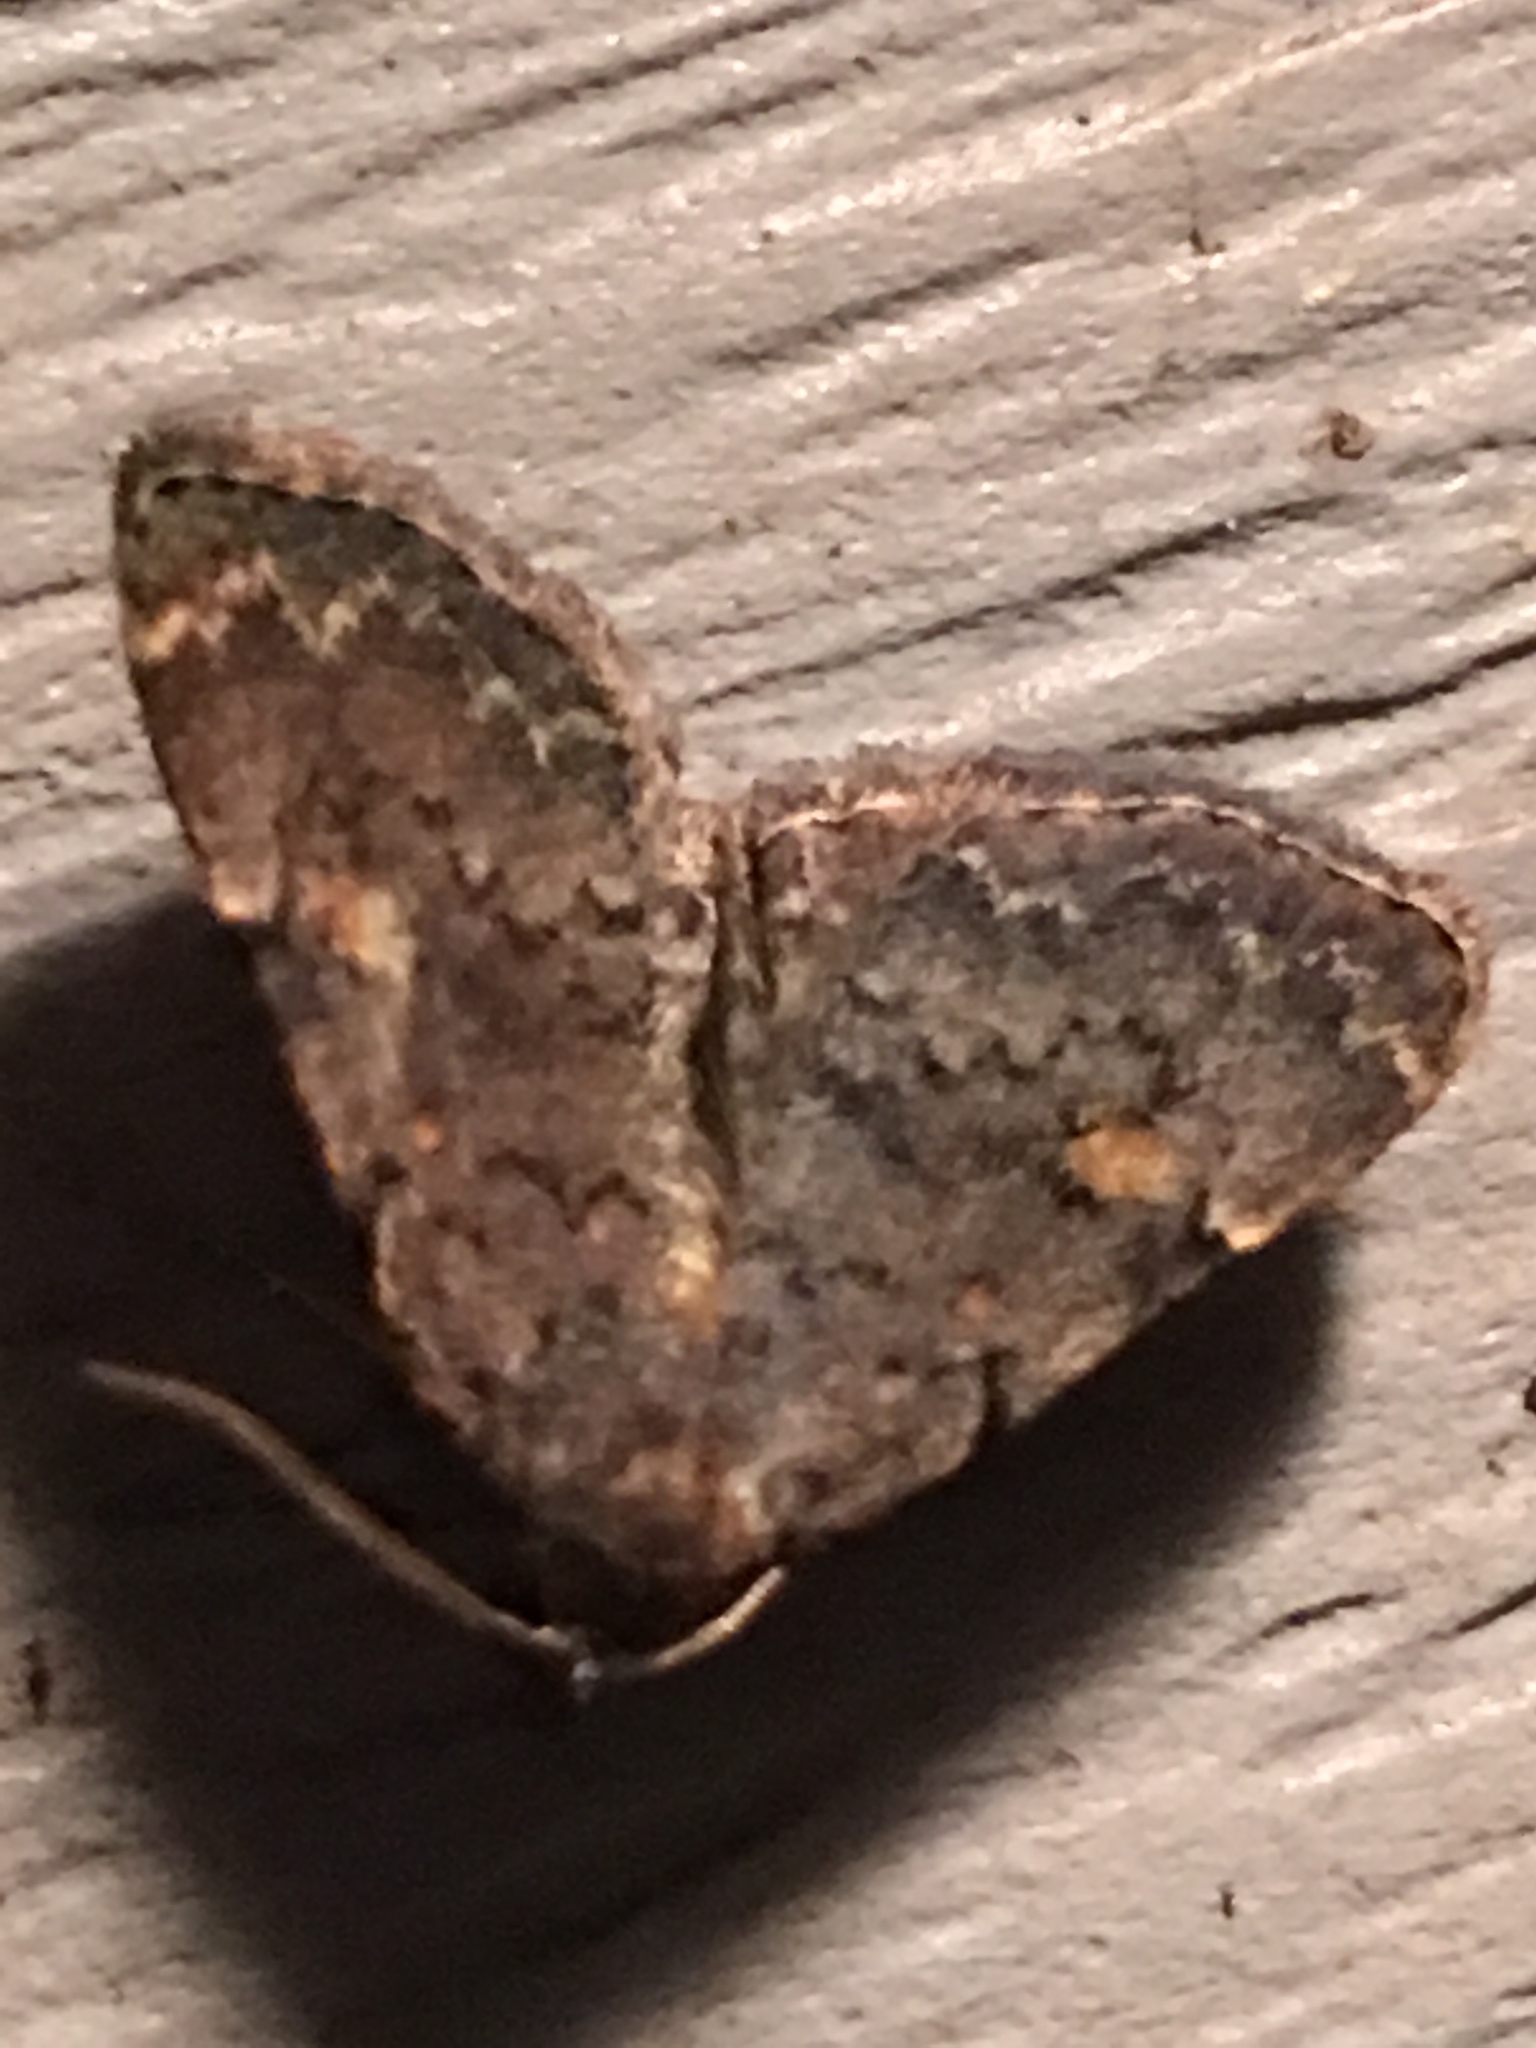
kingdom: Animalia
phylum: Arthropoda
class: Insecta
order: Lepidoptera
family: Erebidae
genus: Idia
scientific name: Idia aemula
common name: Common idia moth
